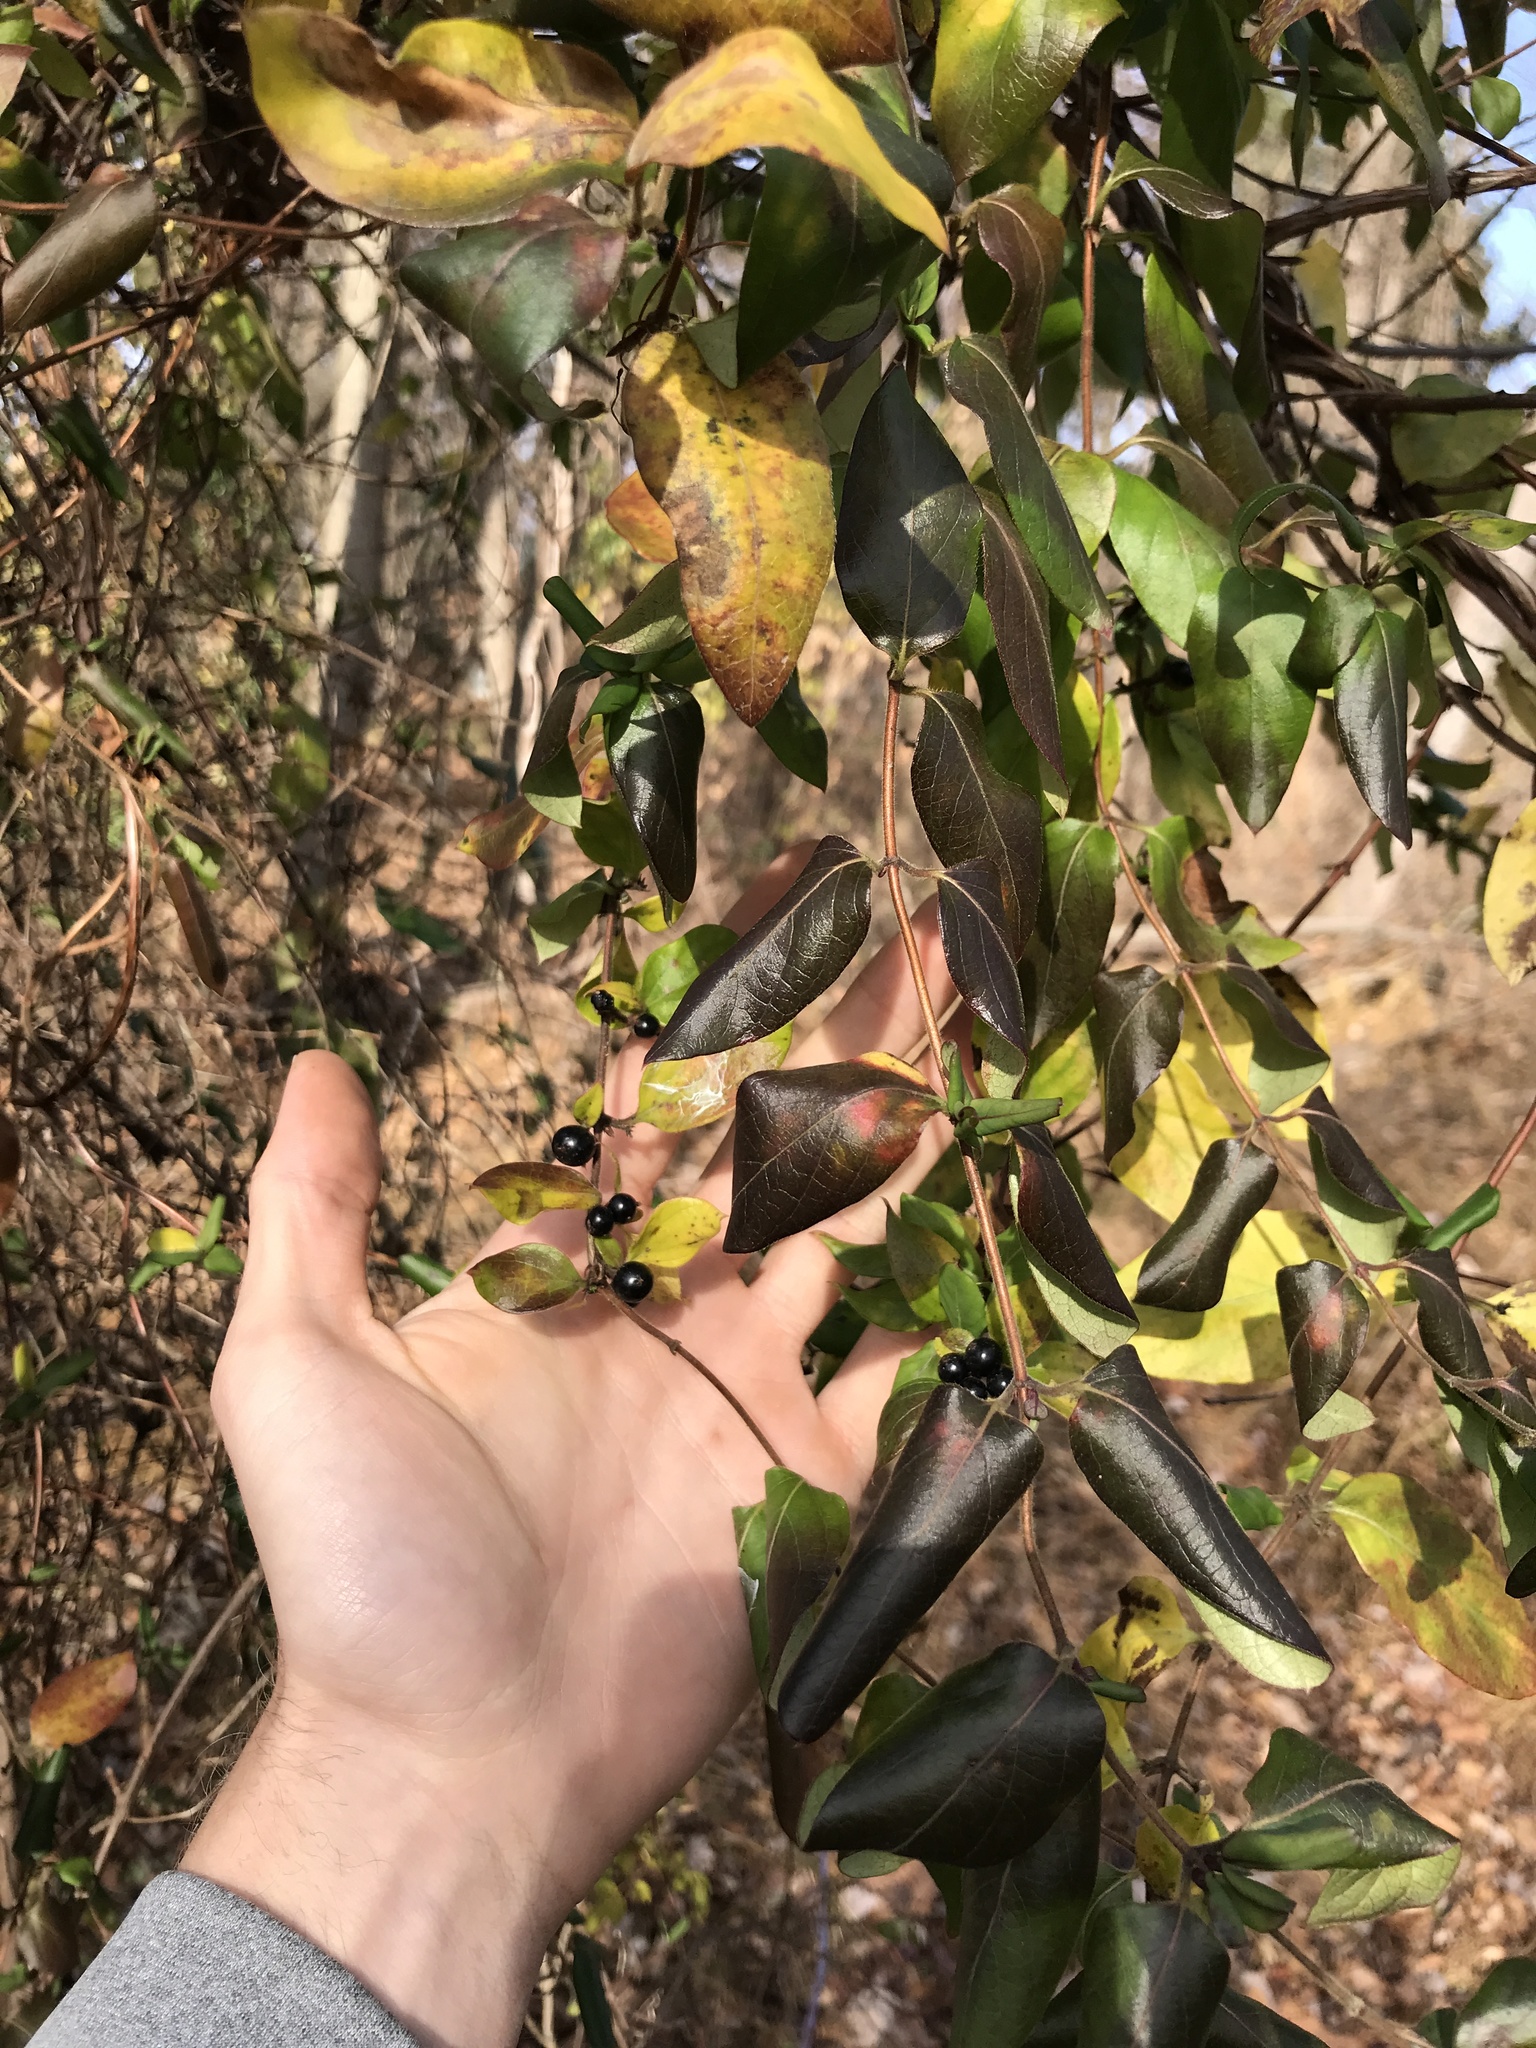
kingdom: Plantae
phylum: Tracheophyta
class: Magnoliopsida
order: Dipsacales
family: Caprifoliaceae
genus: Lonicera
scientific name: Lonicera japonica
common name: Japanese honeysuckle
